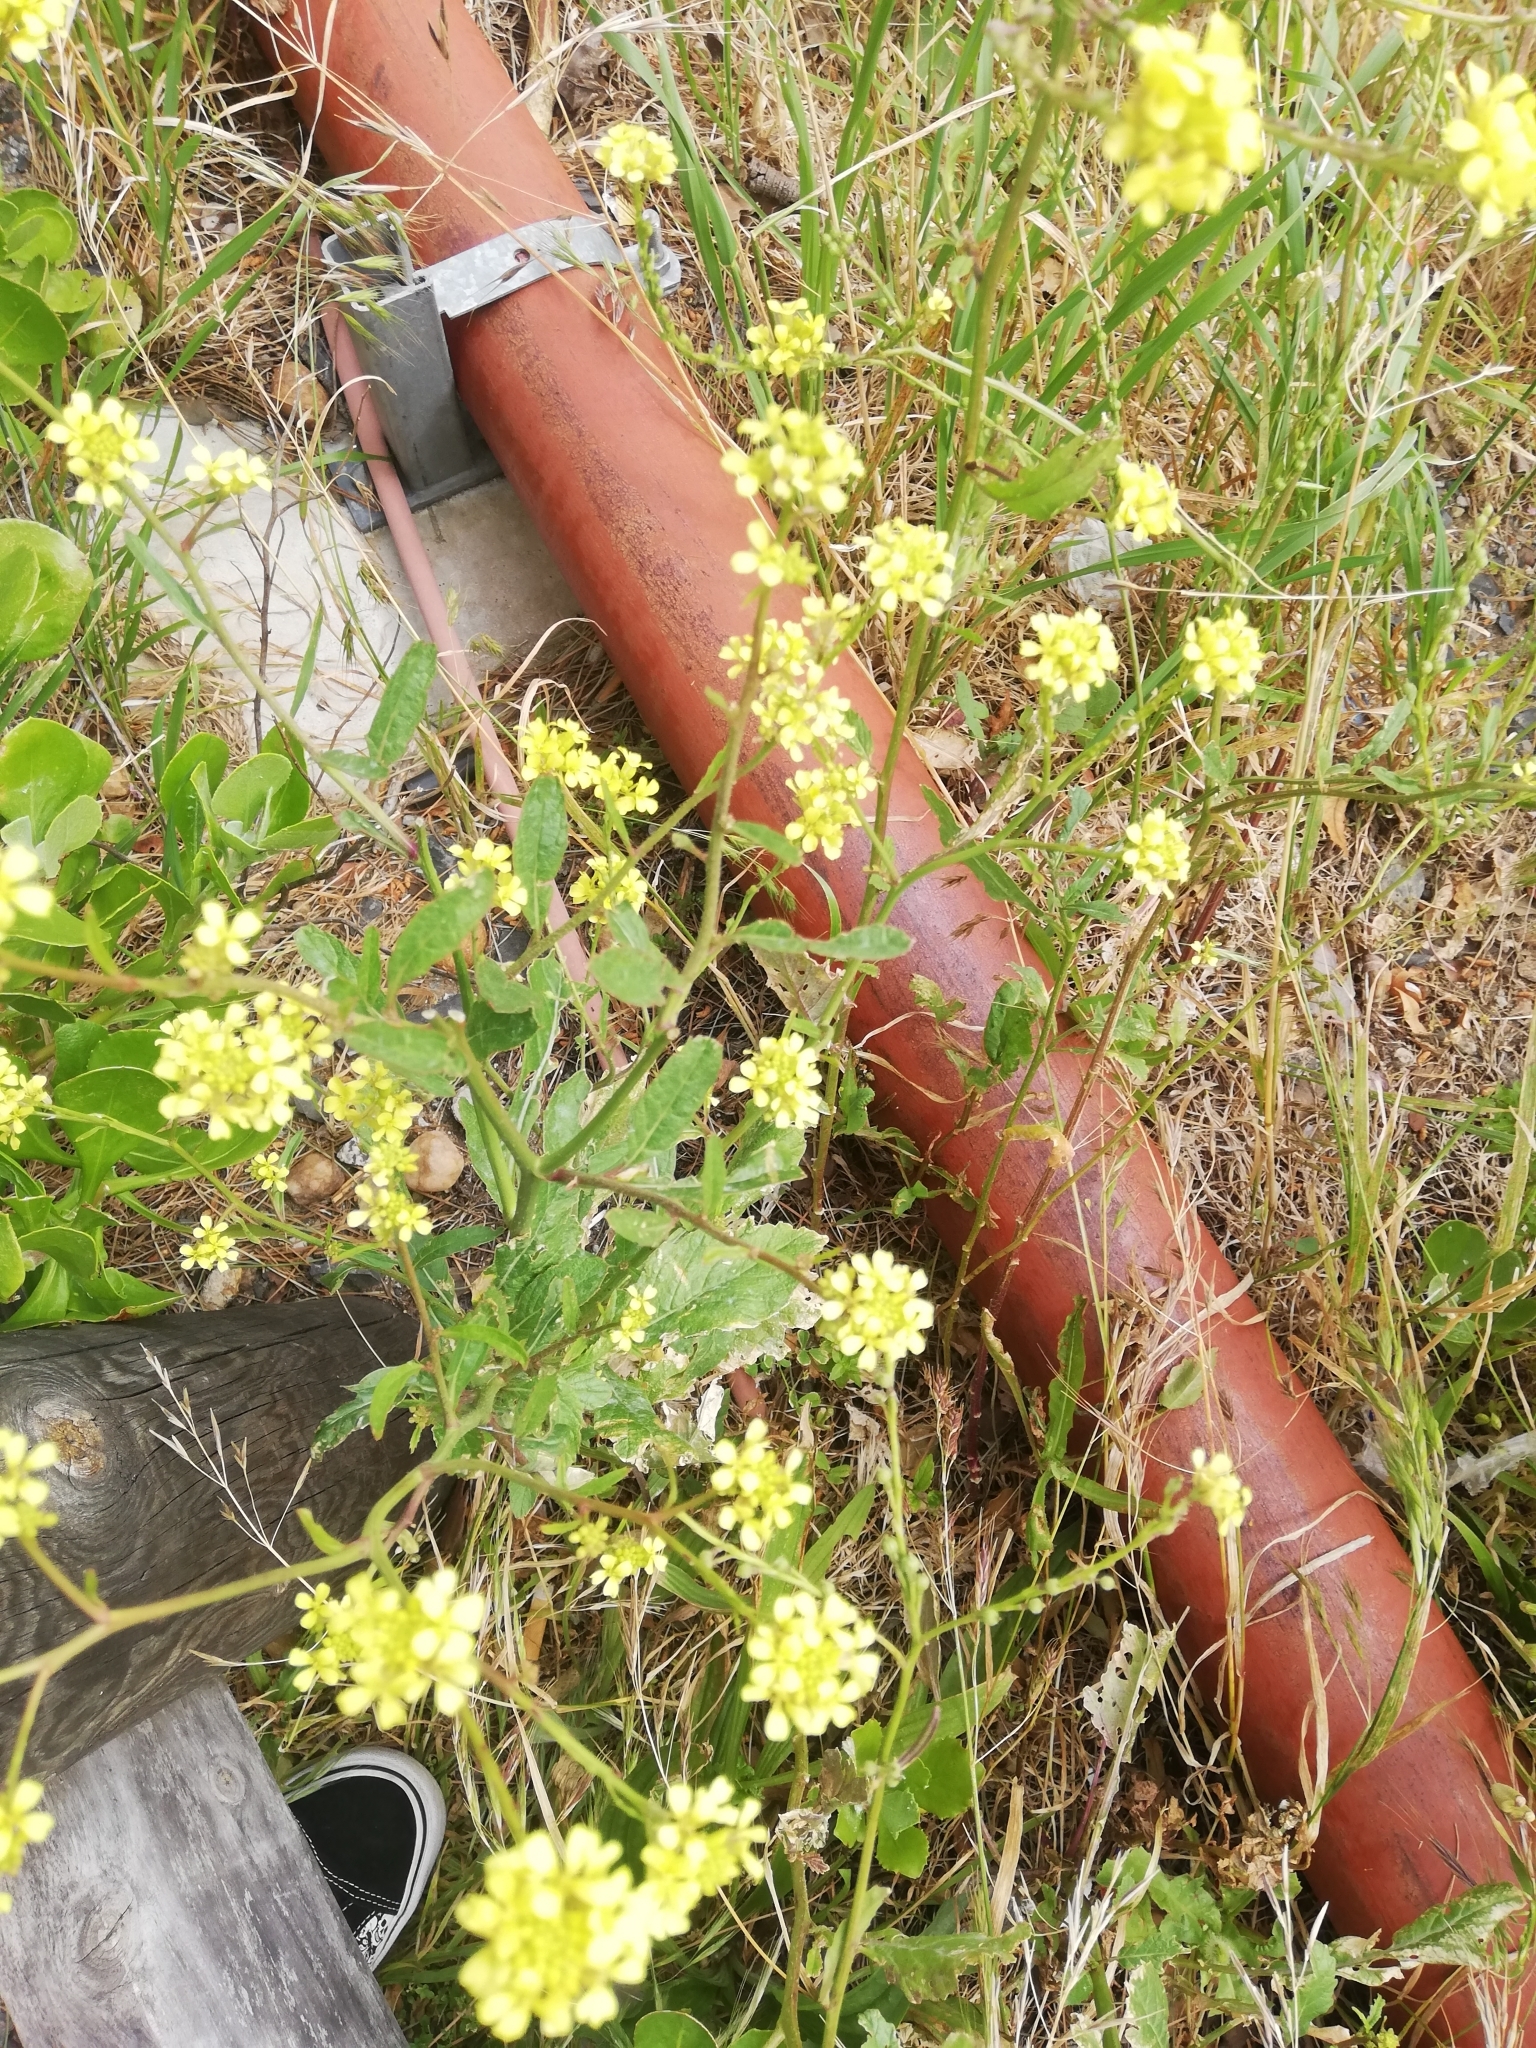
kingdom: Plantae
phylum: Tracheophyta
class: Magnoliopsida
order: Brassicales
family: Brassicaceae
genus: Rapistrum
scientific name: Rapistrum rugosum
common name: Annual bastardcabbage
